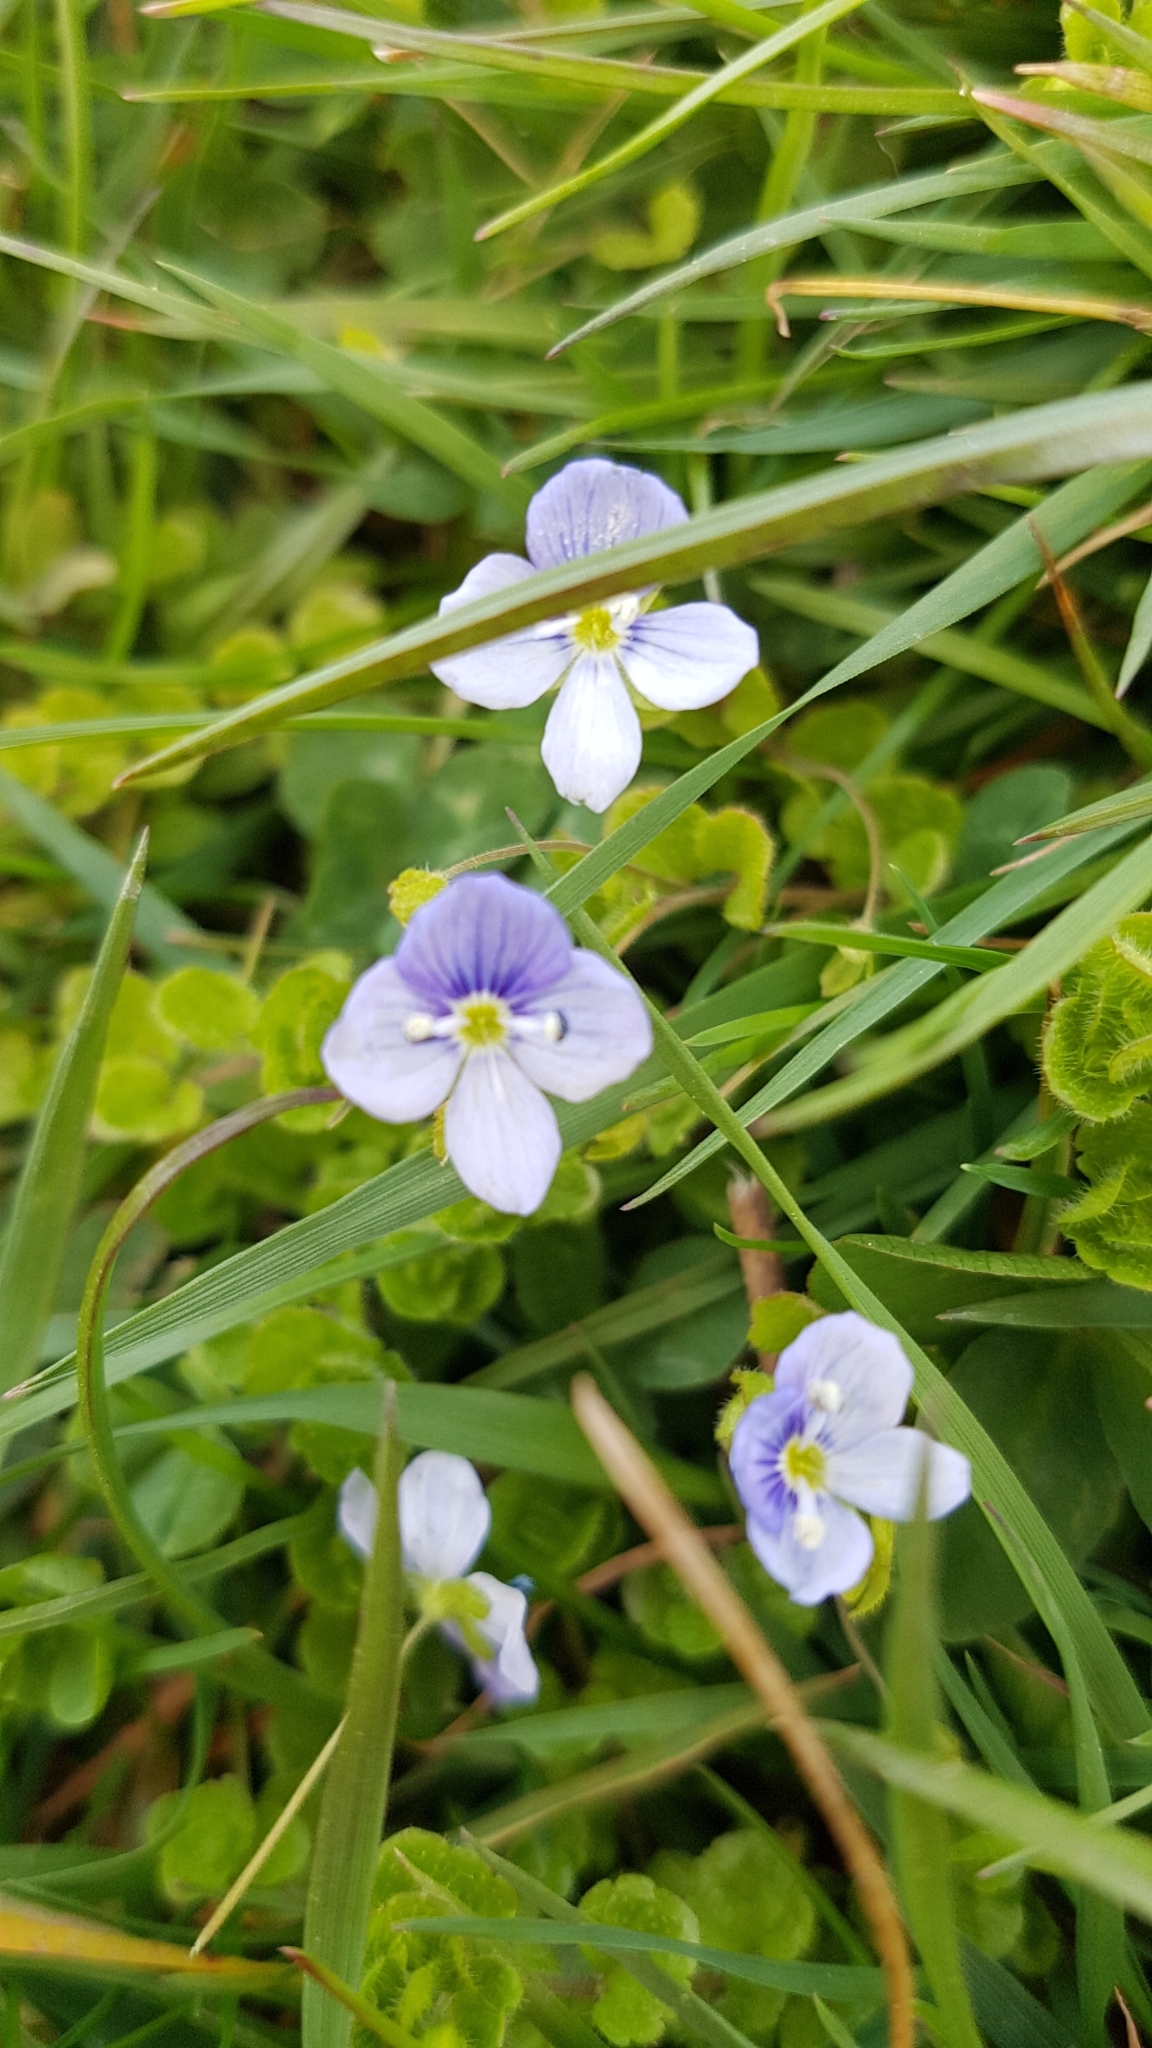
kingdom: Plantae
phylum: Tracheophyta
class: Magnoliopsida
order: Lamiales
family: Plantaginaceae
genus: Veronica
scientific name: Veronica filiformis
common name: Slender speedwell
